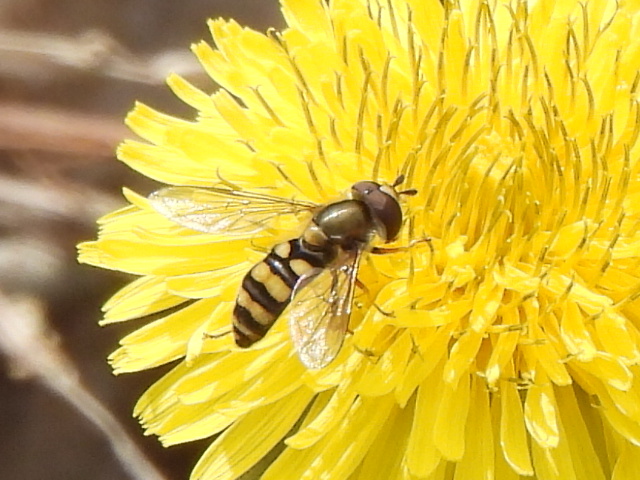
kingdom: Animalia
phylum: Arthropoda
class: Insecta
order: Diptera
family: Syrphidae
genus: Eupeodes
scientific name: Eupeodes
